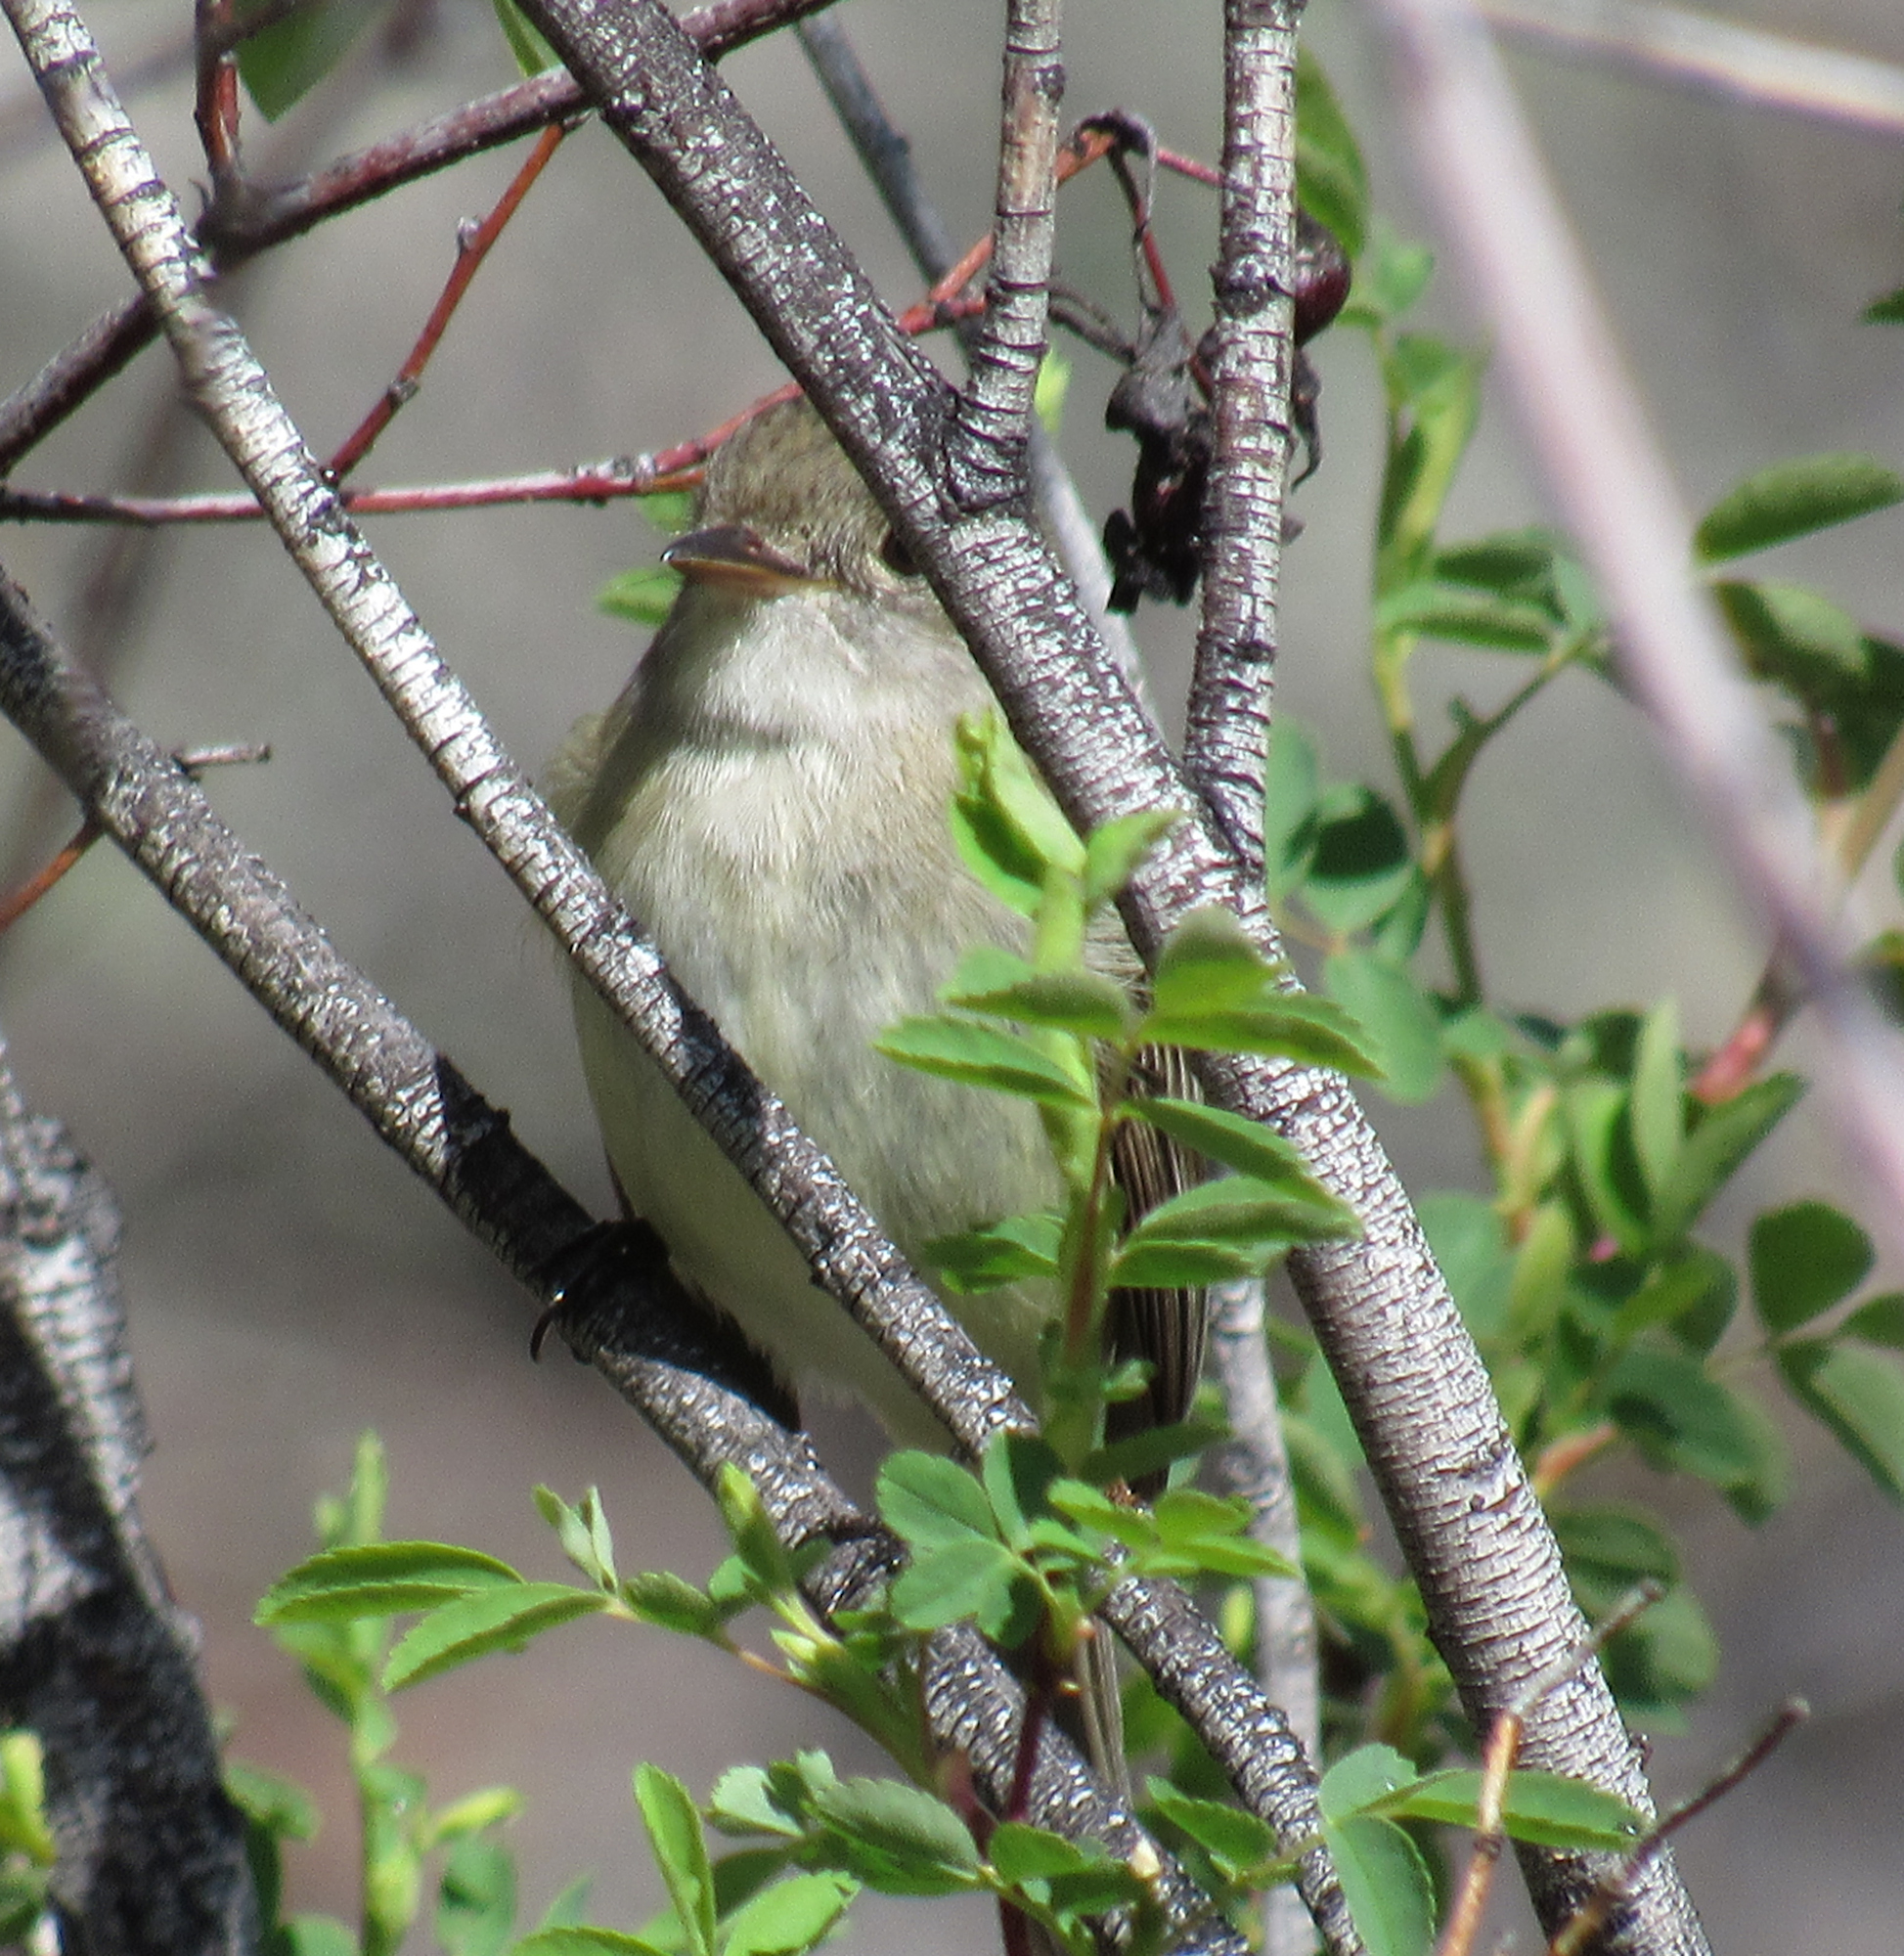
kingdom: Animalia
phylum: Chordata
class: Aves
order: Passeriformes
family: Tyrannidae
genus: Empidonax
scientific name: Empidonax traillii
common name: Willow flycatcher
